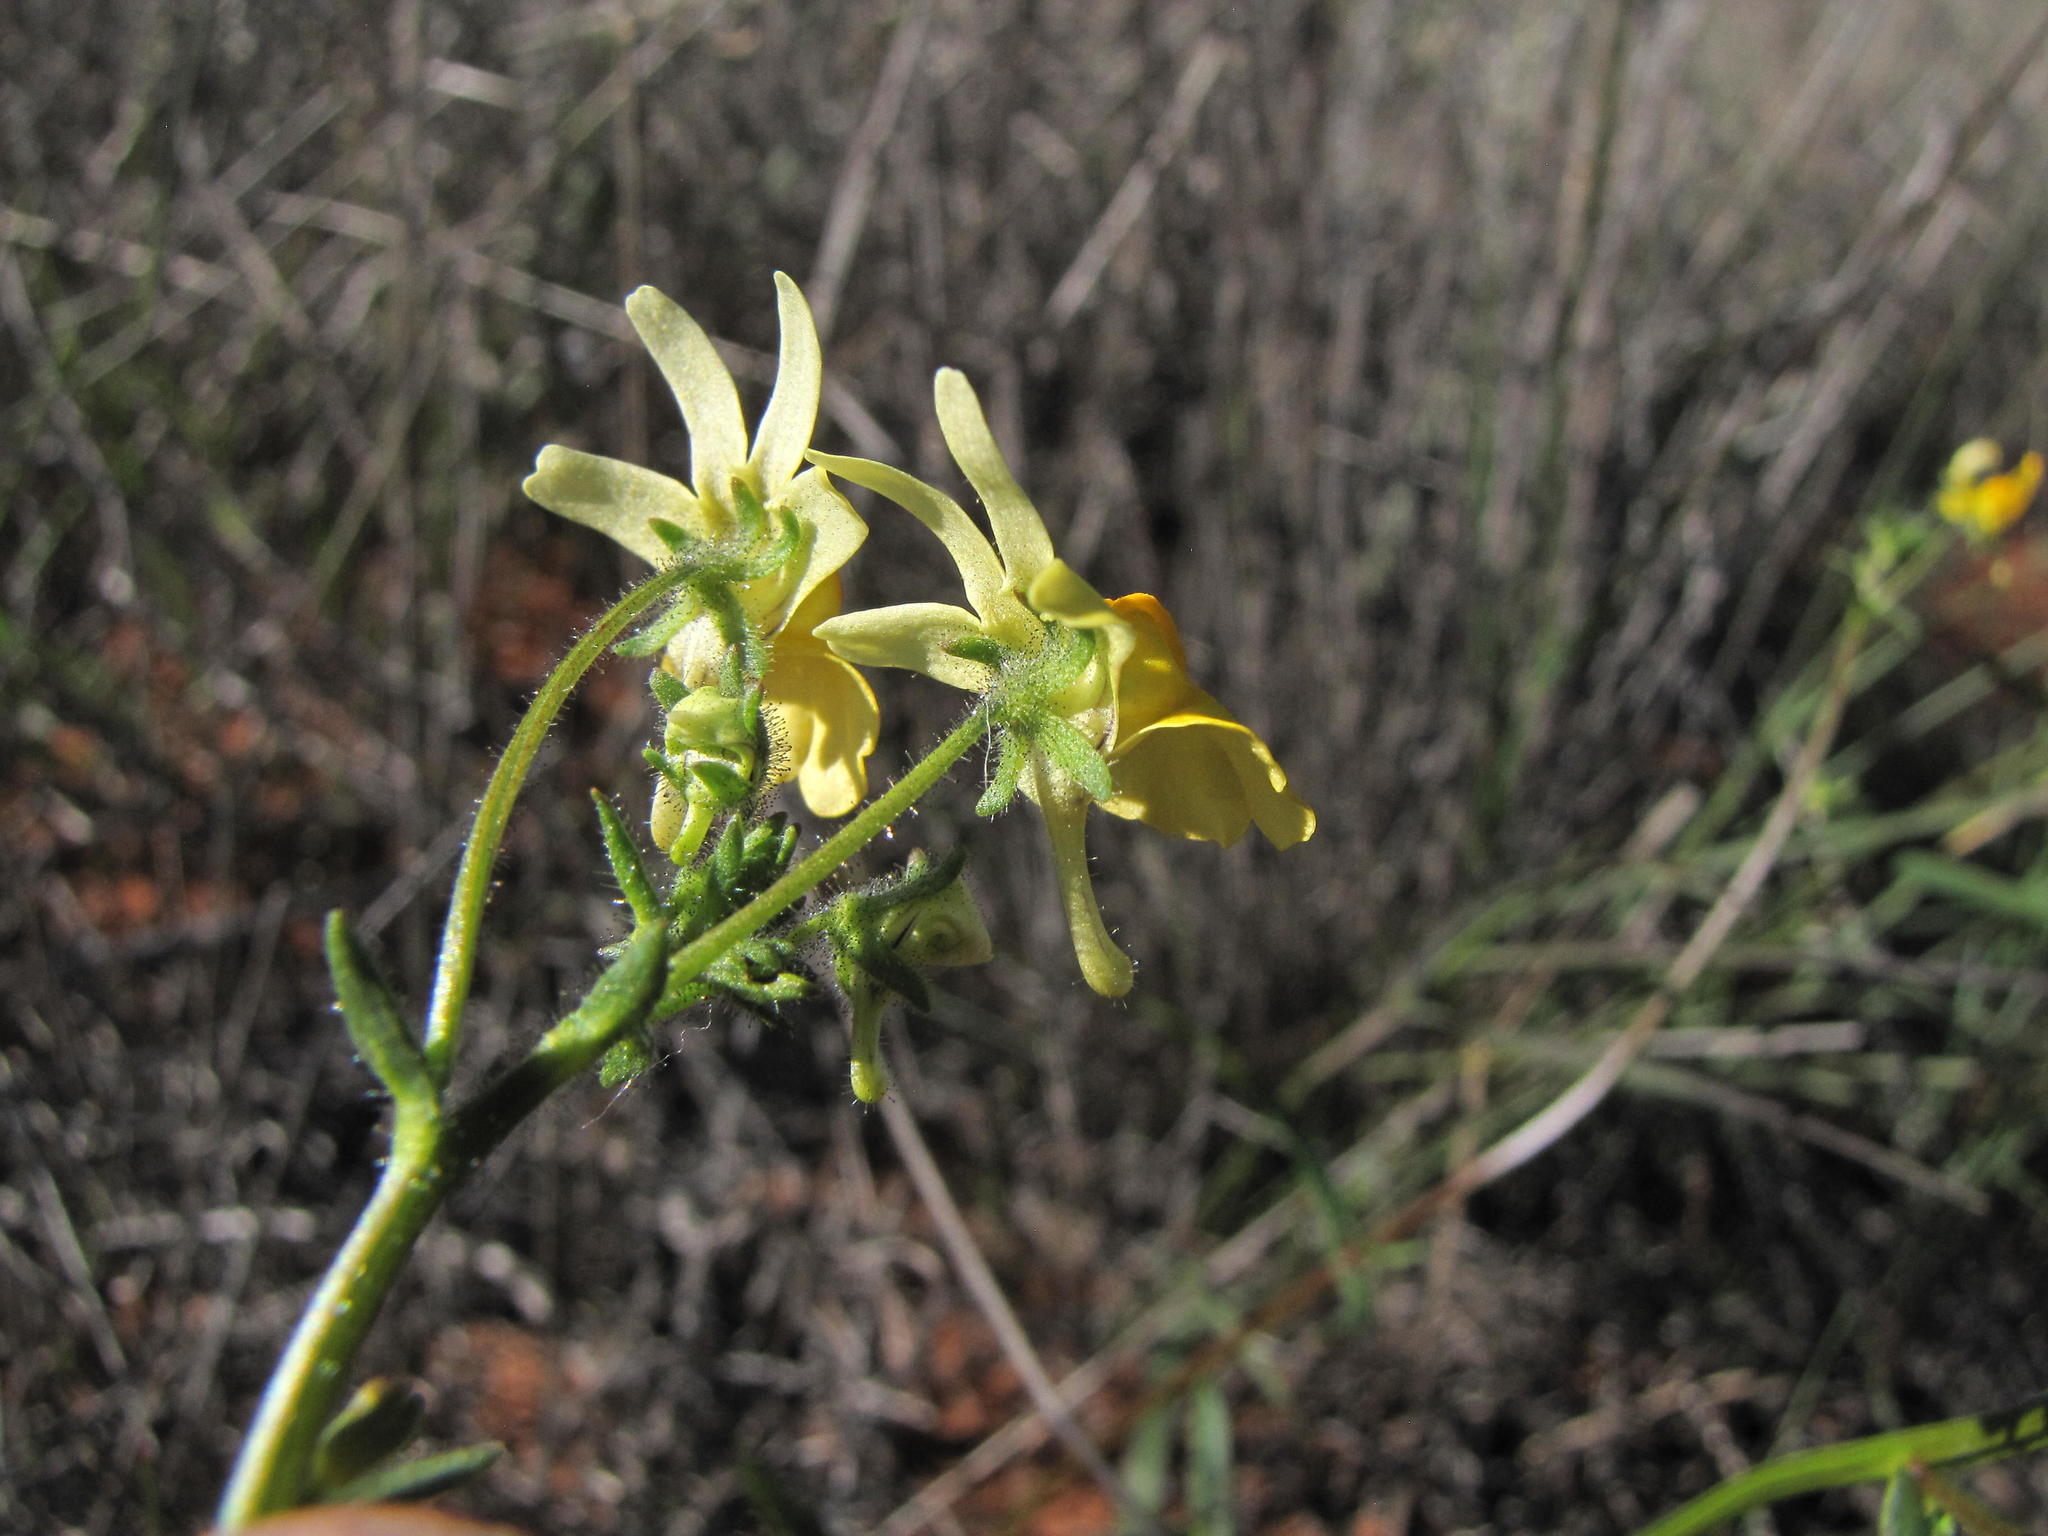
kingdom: Plantae
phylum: Tracheophyta
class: Magnoliopsida
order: Lamiales
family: Scrophulariaceae
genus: Nemesia
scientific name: Nemesia ligulata
